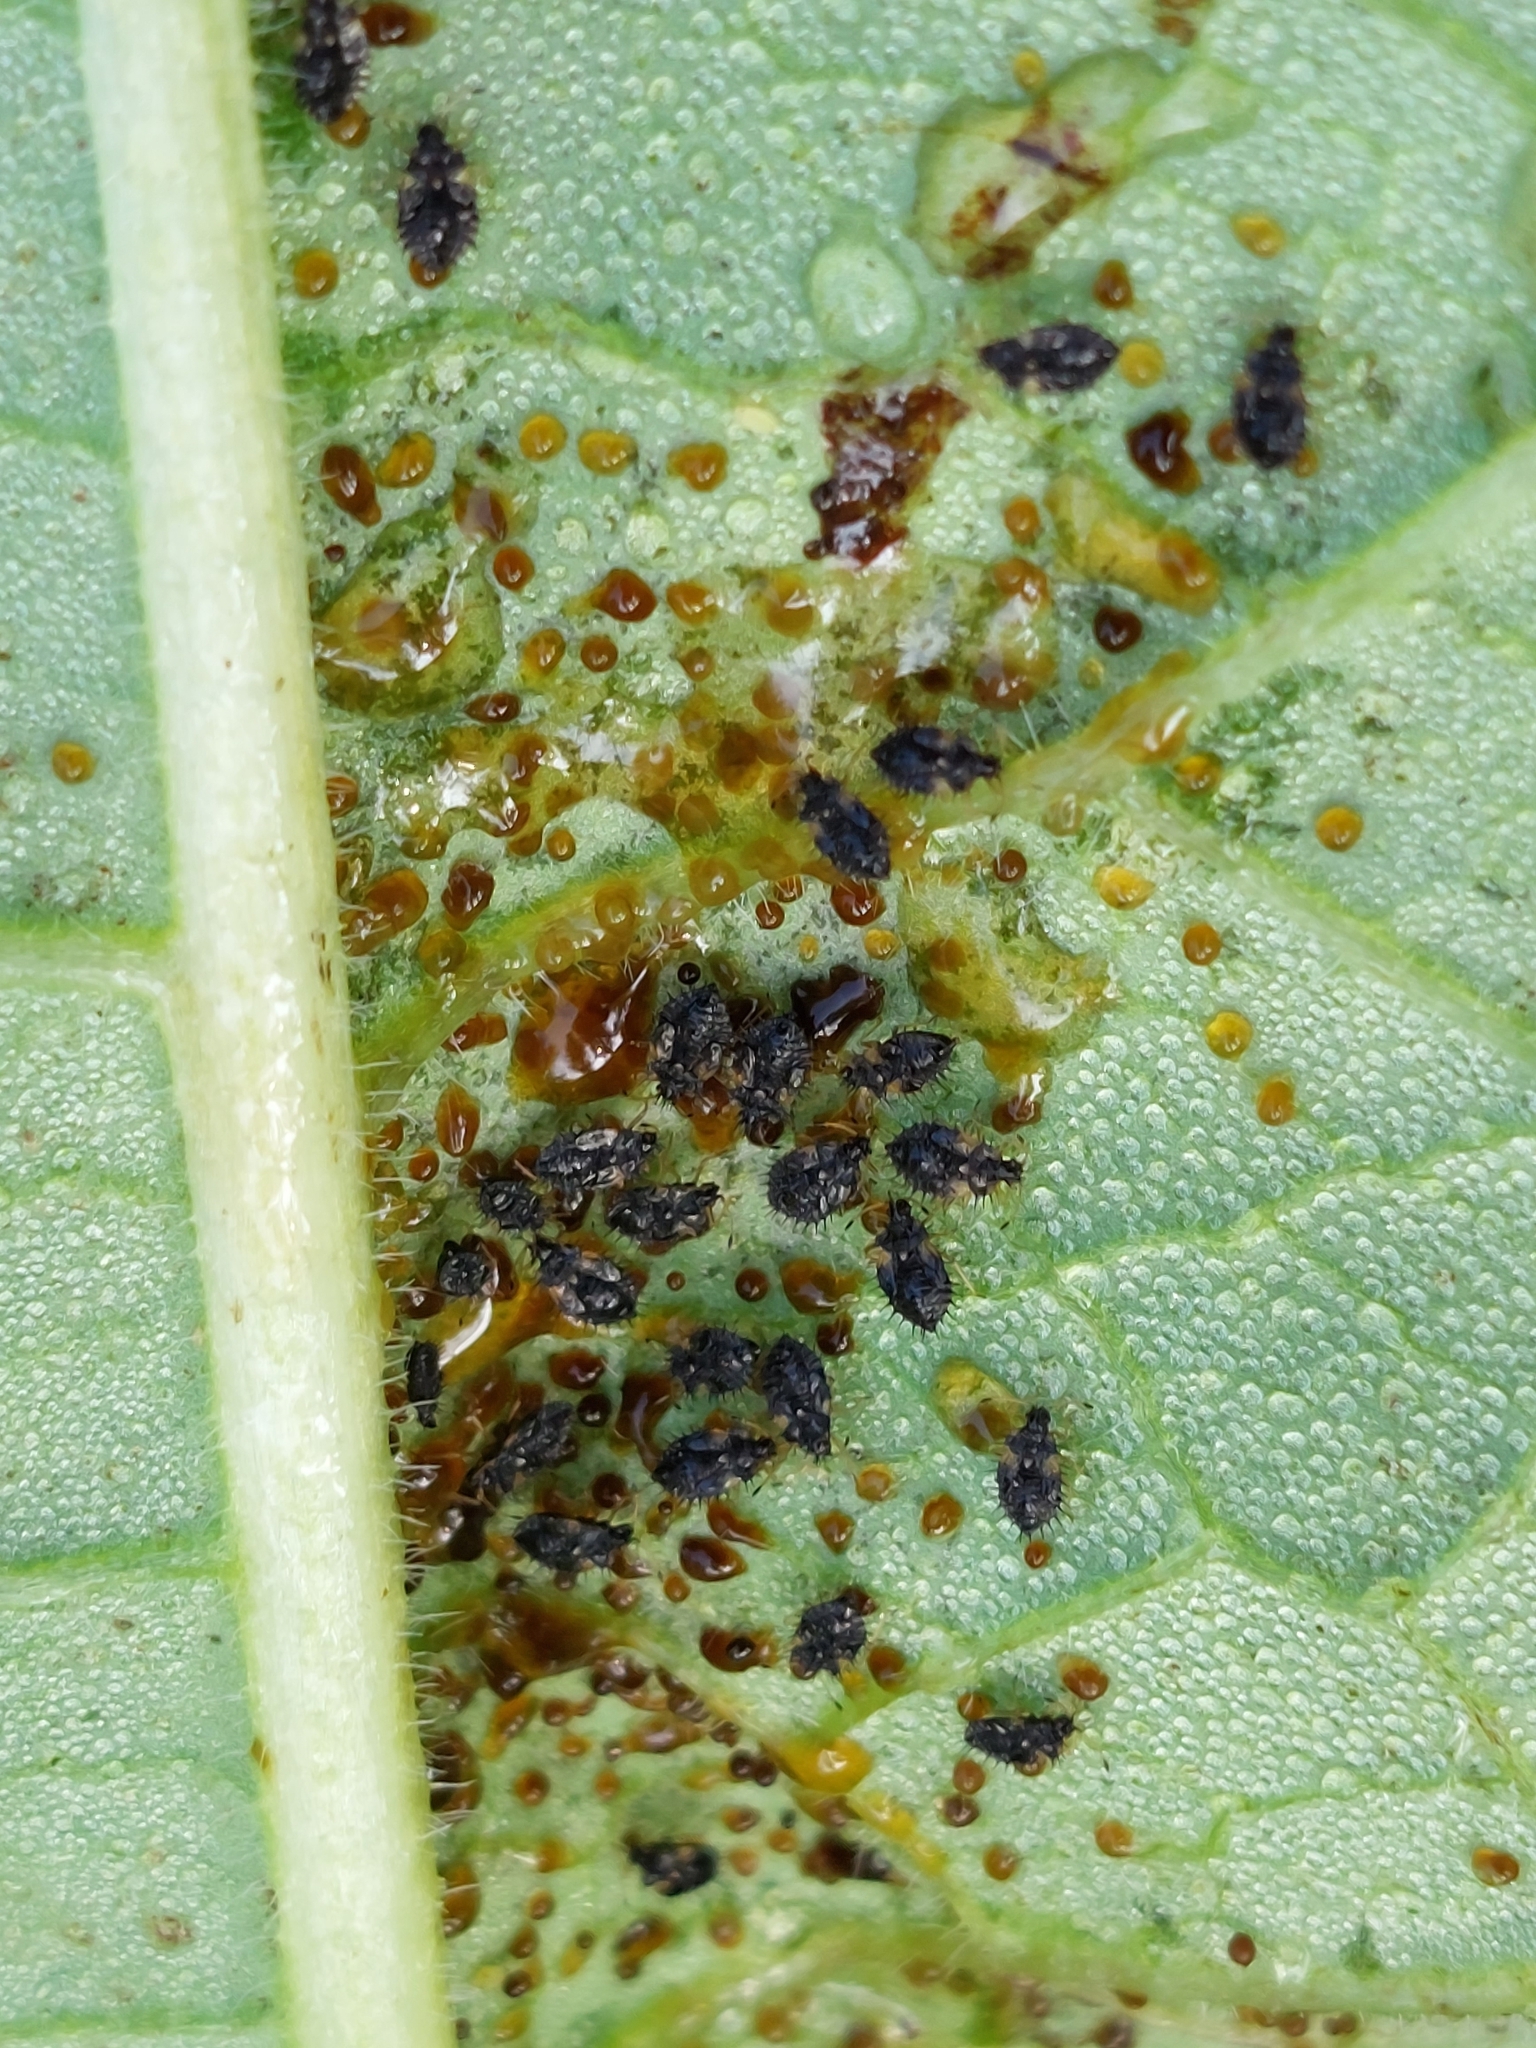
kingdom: Animalia
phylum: Arthropoda
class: Insecta
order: Hemiptera
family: Tingidae
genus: Dictyla
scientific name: Dictyla humuli
